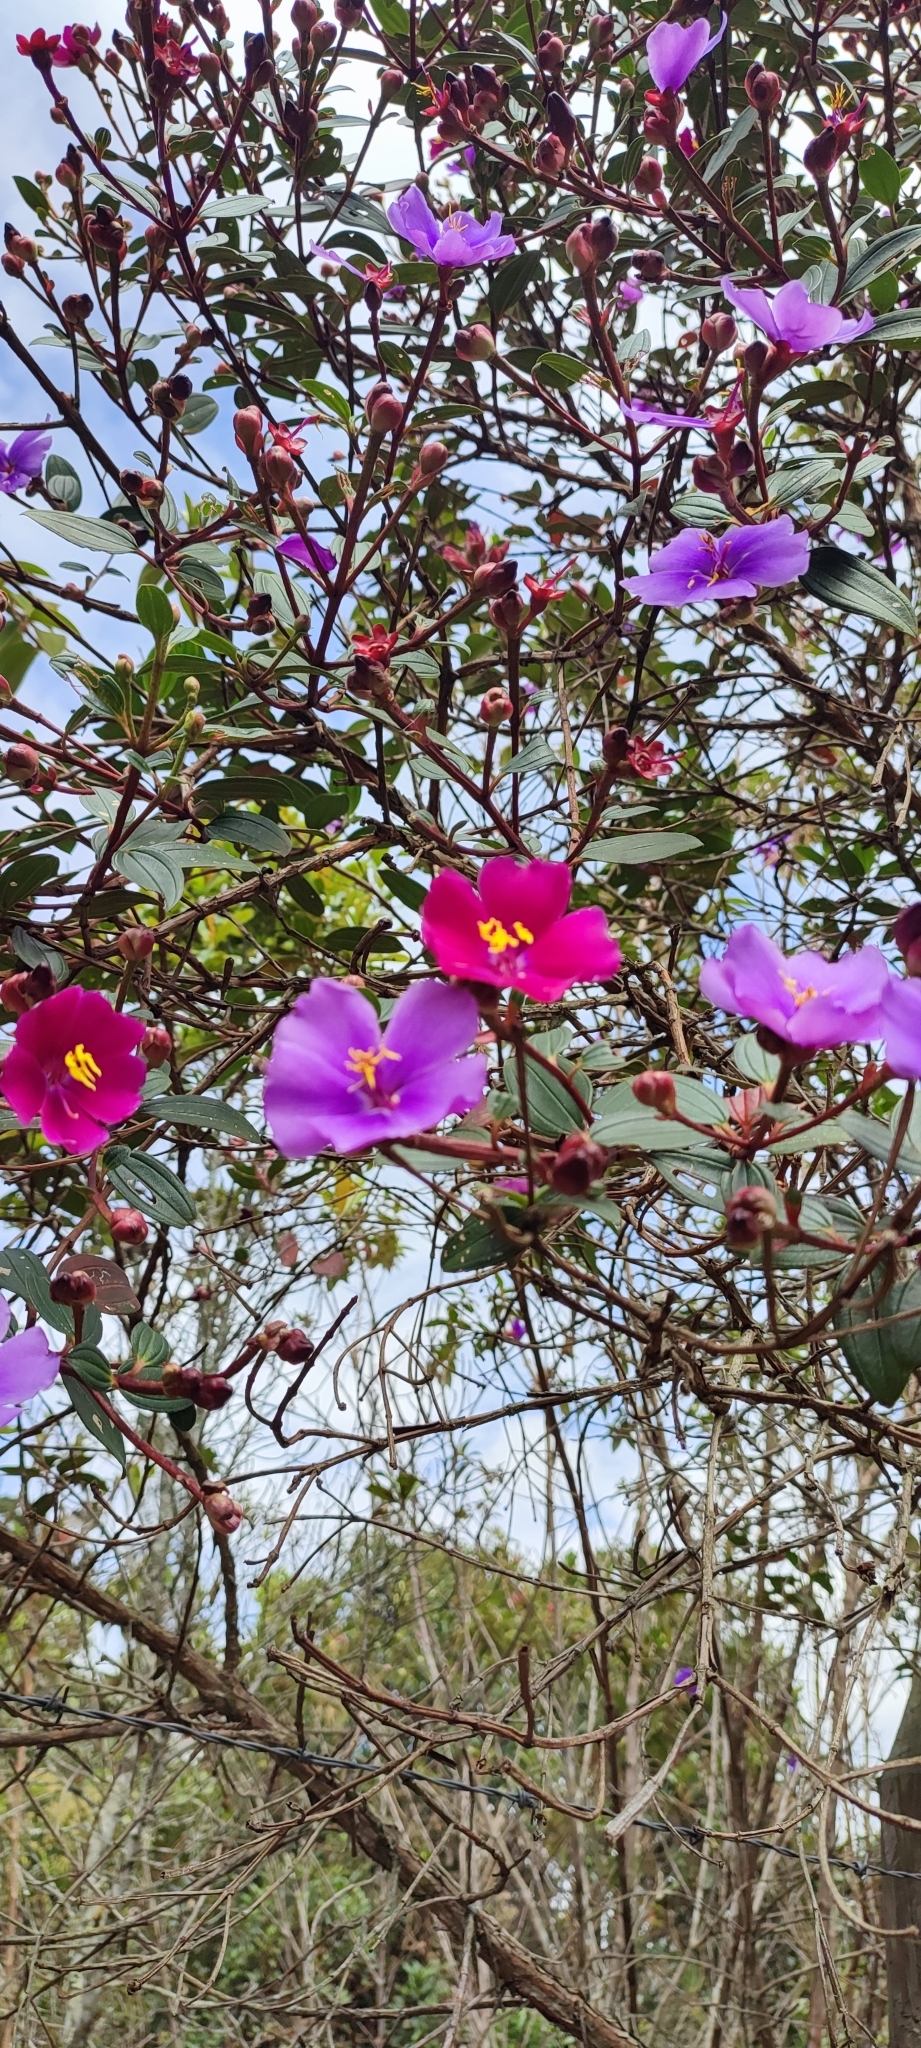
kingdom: Plantae
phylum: Tracheophyta
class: Magnoliopsida
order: Myrtales
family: Melastomataceae
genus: Andesanthus
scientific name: Andesanthus lepidotus
